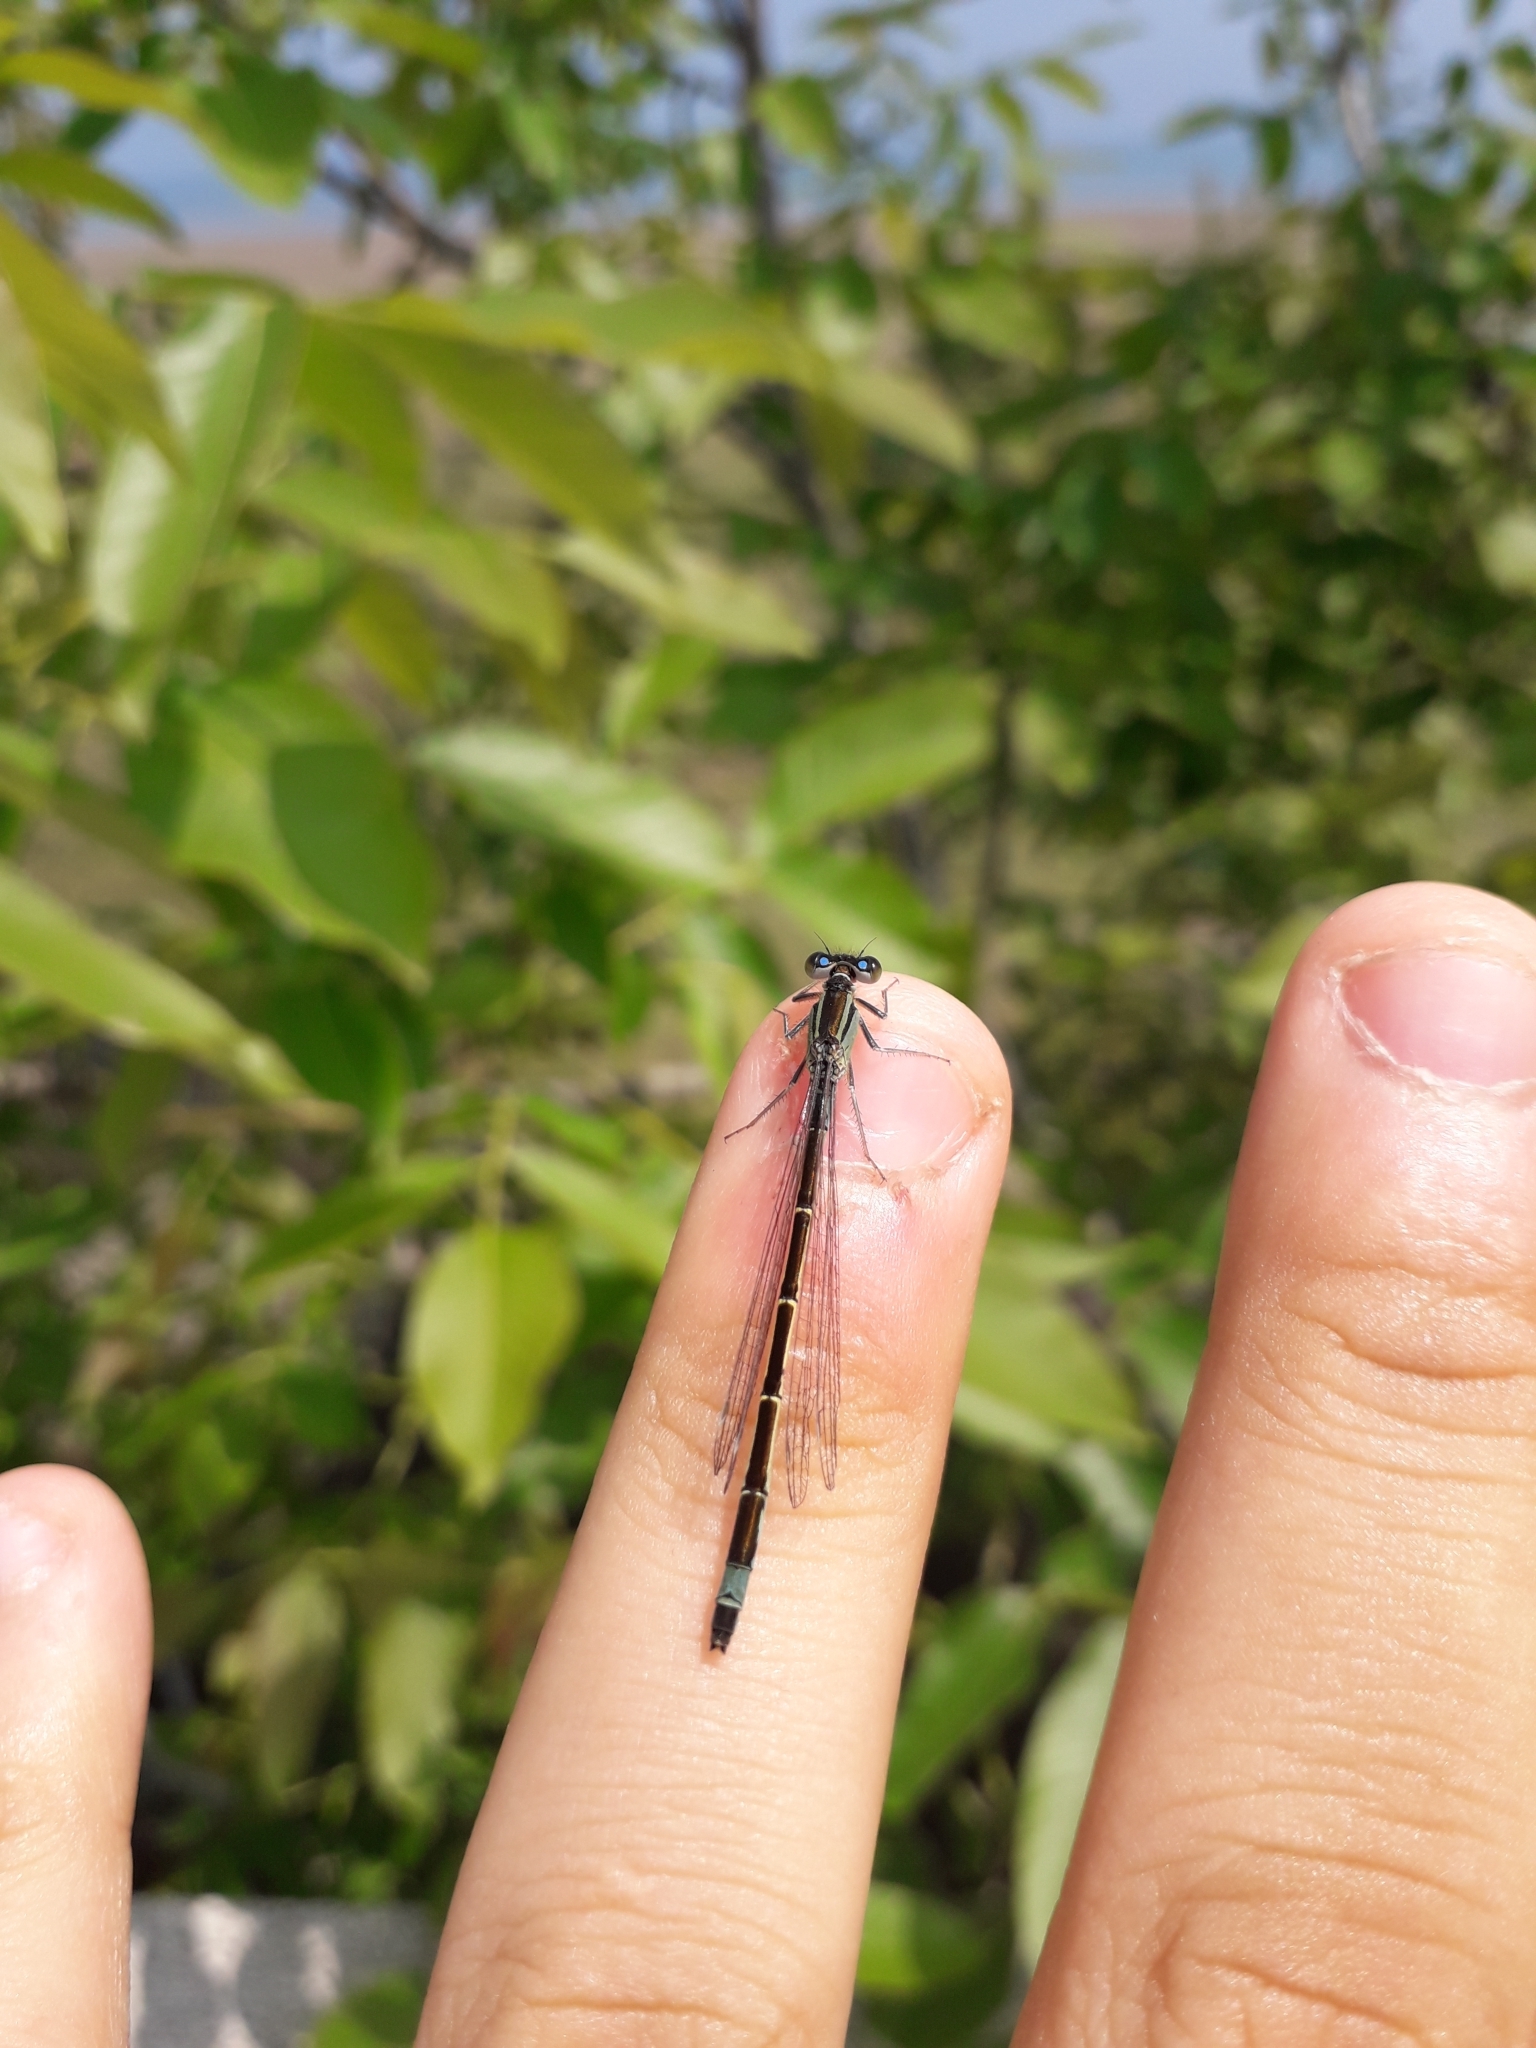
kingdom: Animalia
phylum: Arthropoda
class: Insecta
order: Odonata
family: Coenagrionidae
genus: Ischnura
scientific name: Ischnura elegans
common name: Blue-tailed damselfly
